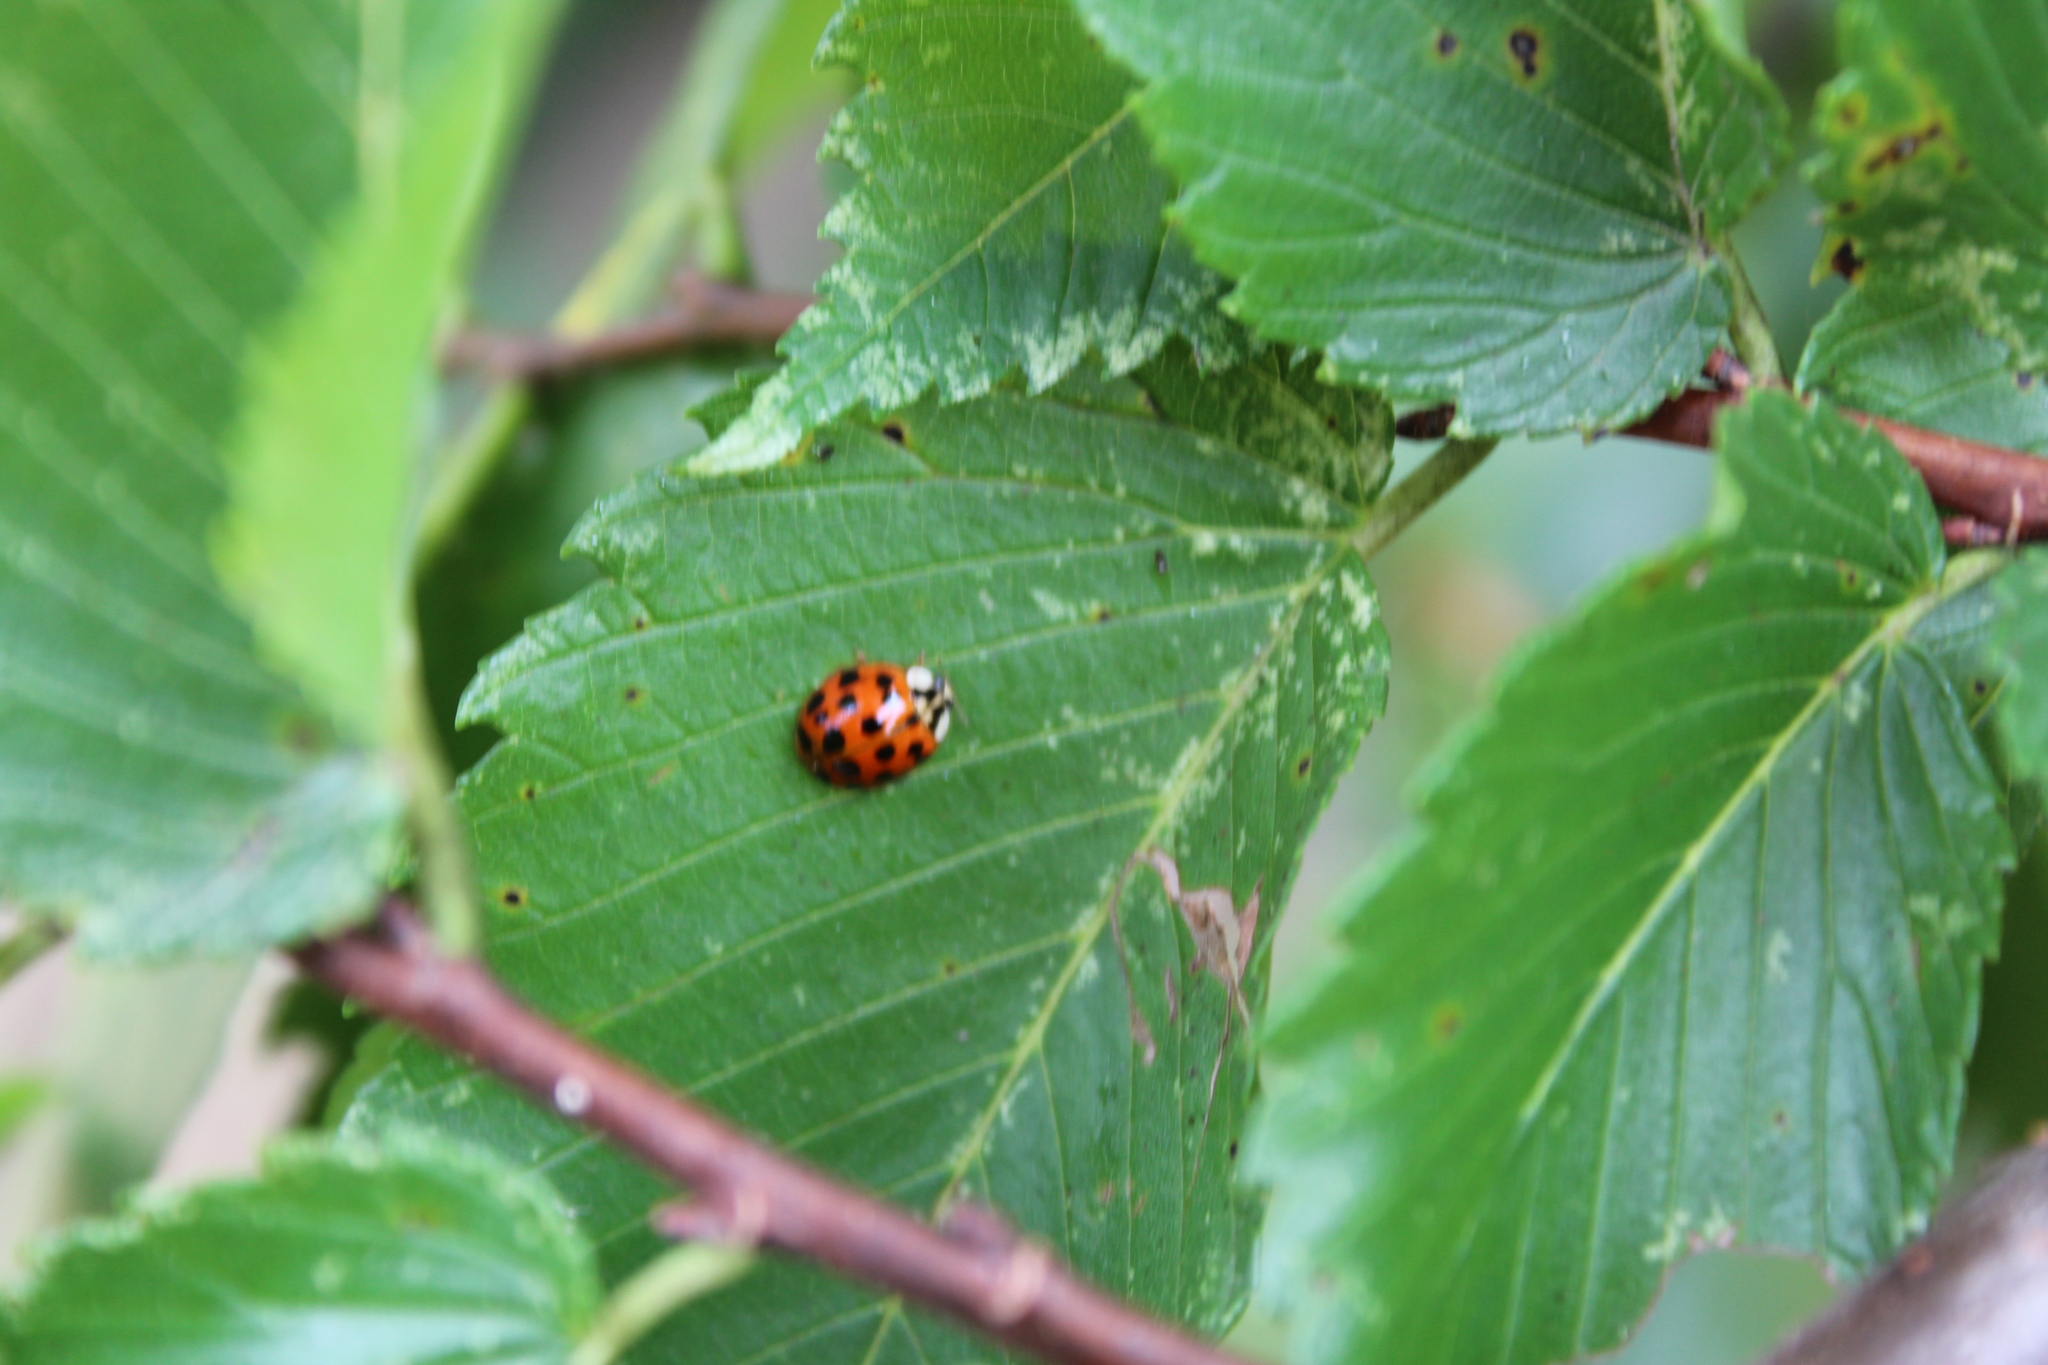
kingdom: Animalia
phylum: Arthropoda
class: Insecta
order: Coleoptera
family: Coccinellidae
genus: Harmonia
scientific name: Harmonia axyridis
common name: Harlequin ladybird
